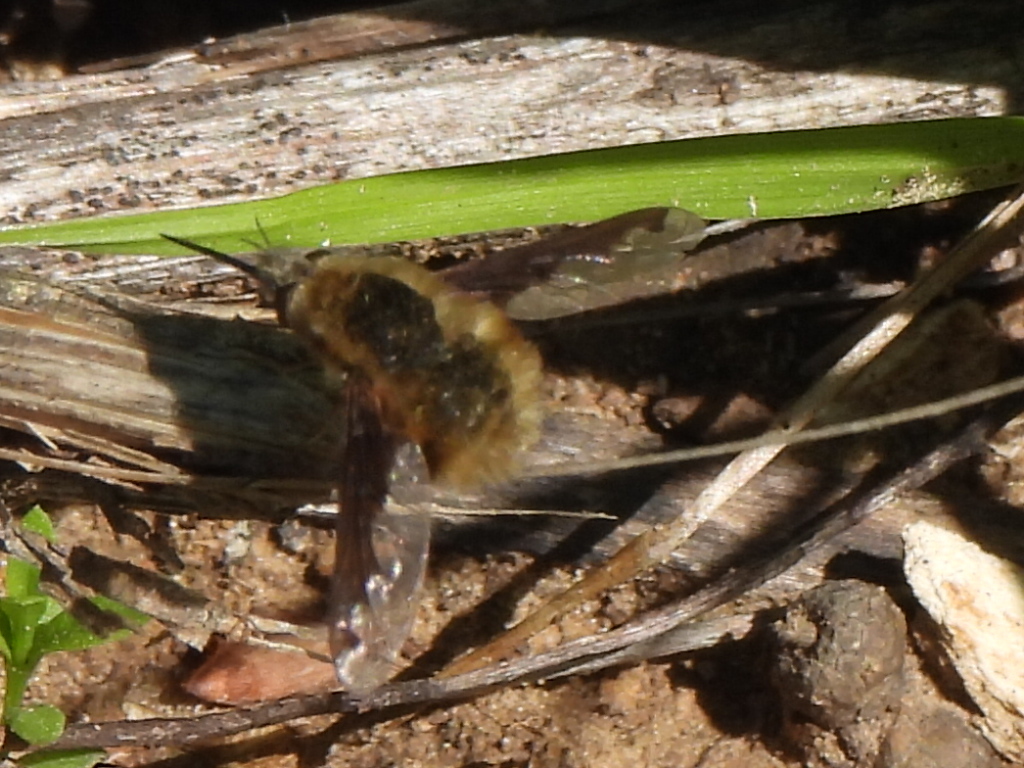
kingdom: Animalia
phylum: Arthropoda
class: Insecta
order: Diptera
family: Bombyliidae
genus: Bombylius
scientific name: Bombylius major
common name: Bee fly
